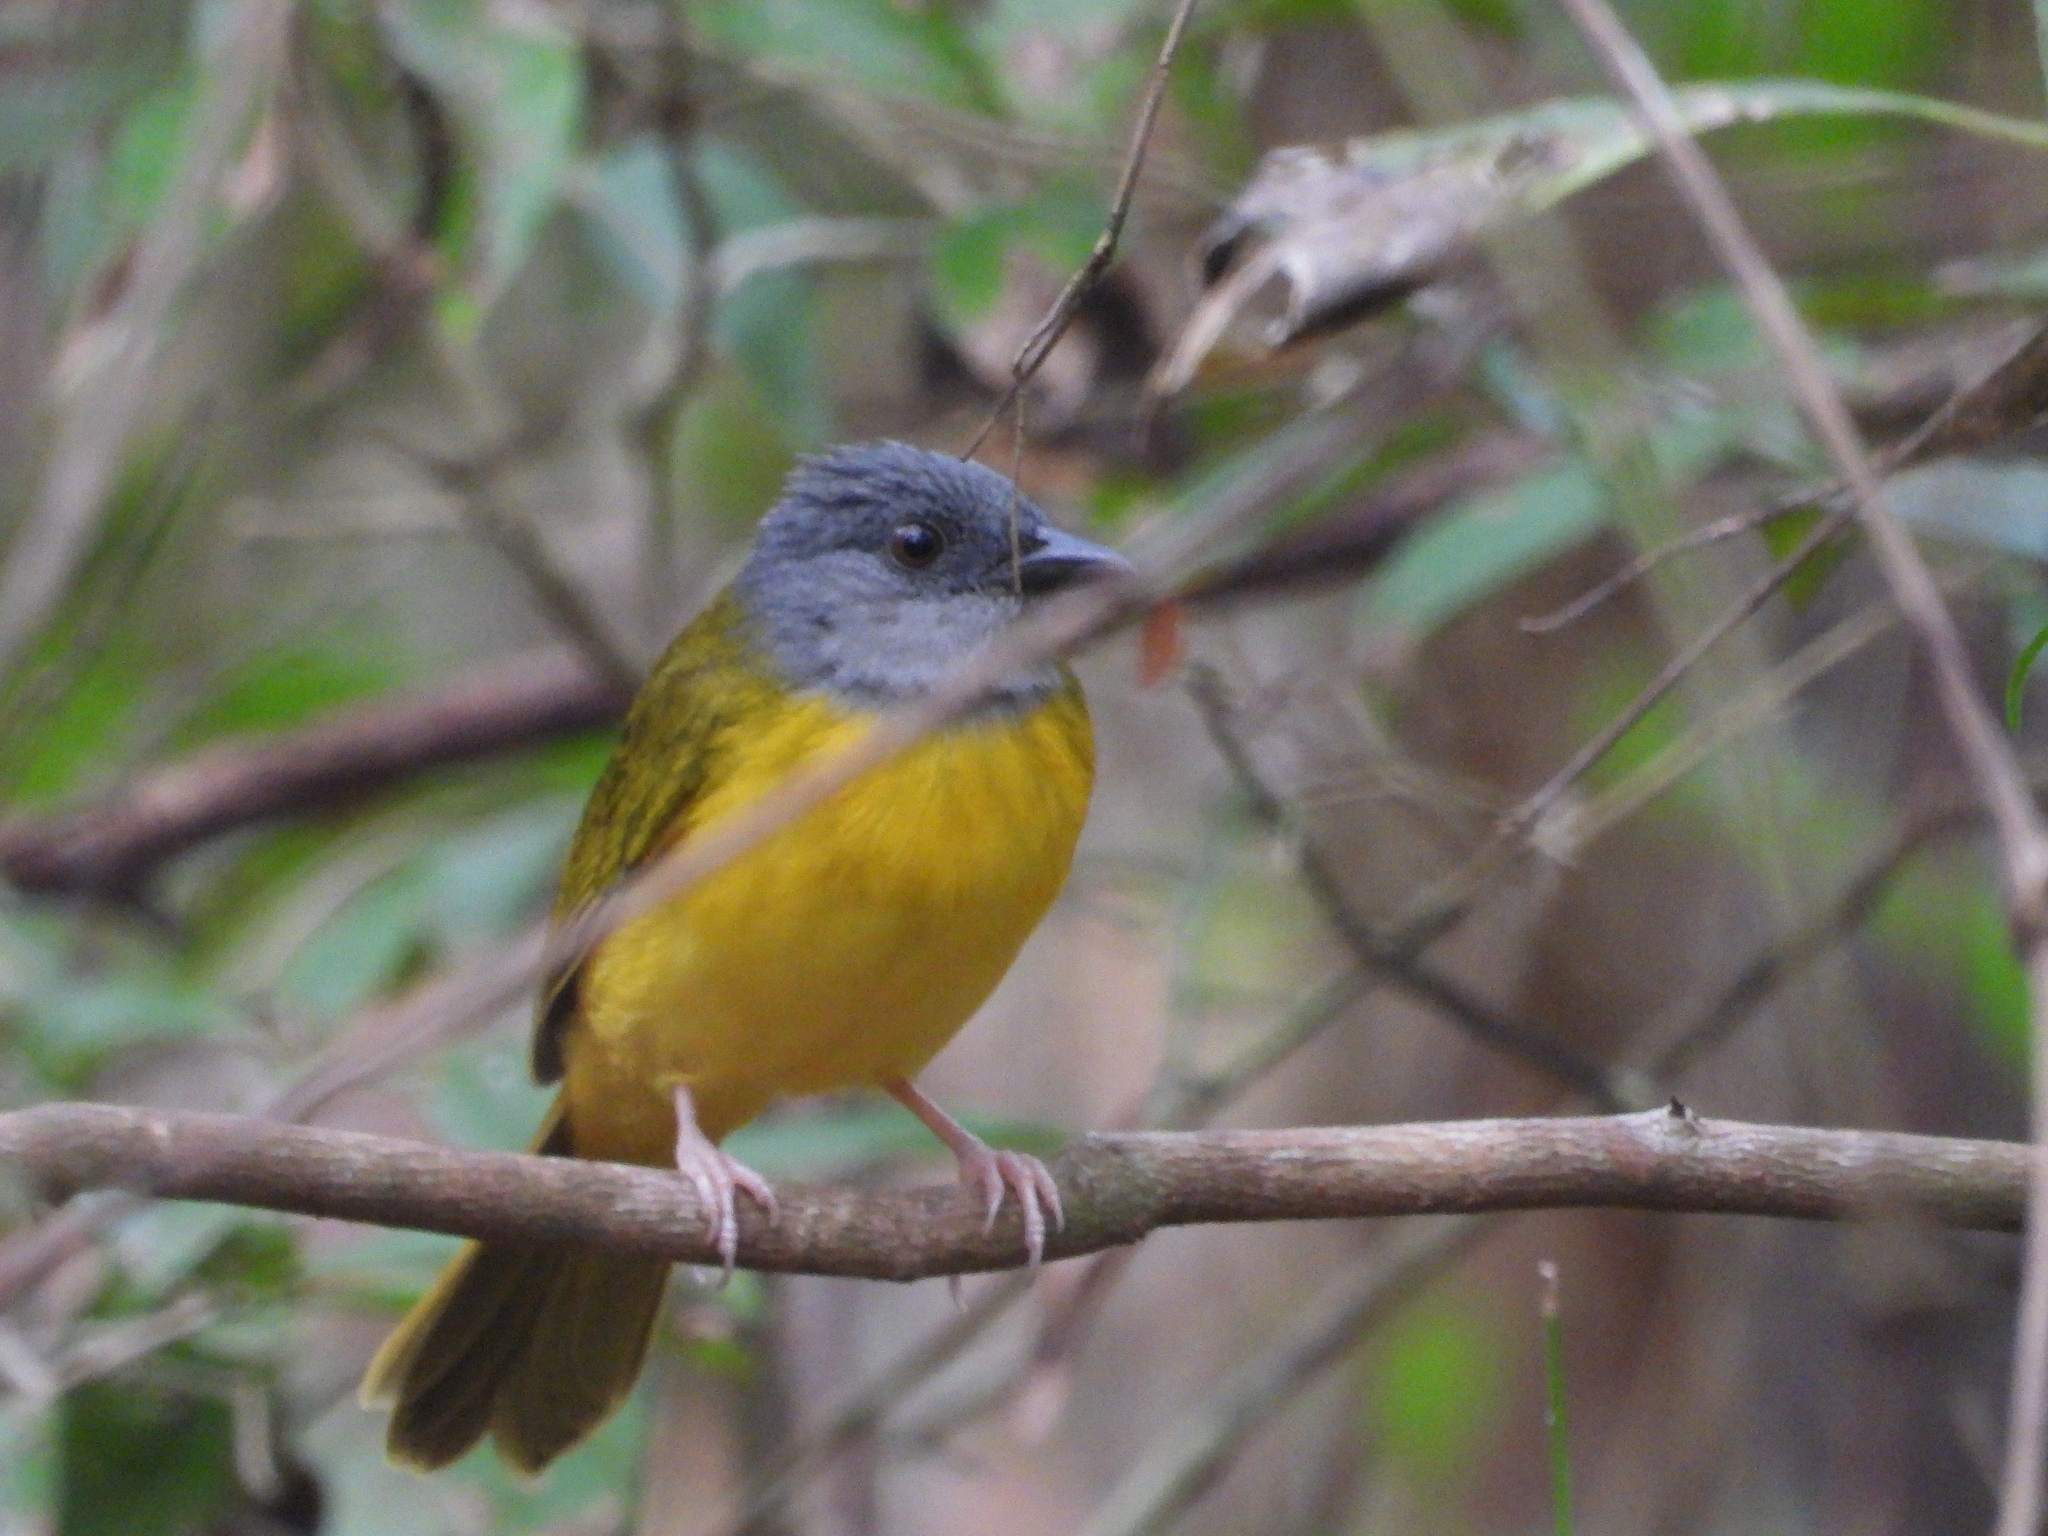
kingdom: Animalia
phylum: Chordata
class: Aves
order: Passeriformes
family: Thraupidae
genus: Eucometis
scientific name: Eucometis penicillata
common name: Grey-headed tanager
